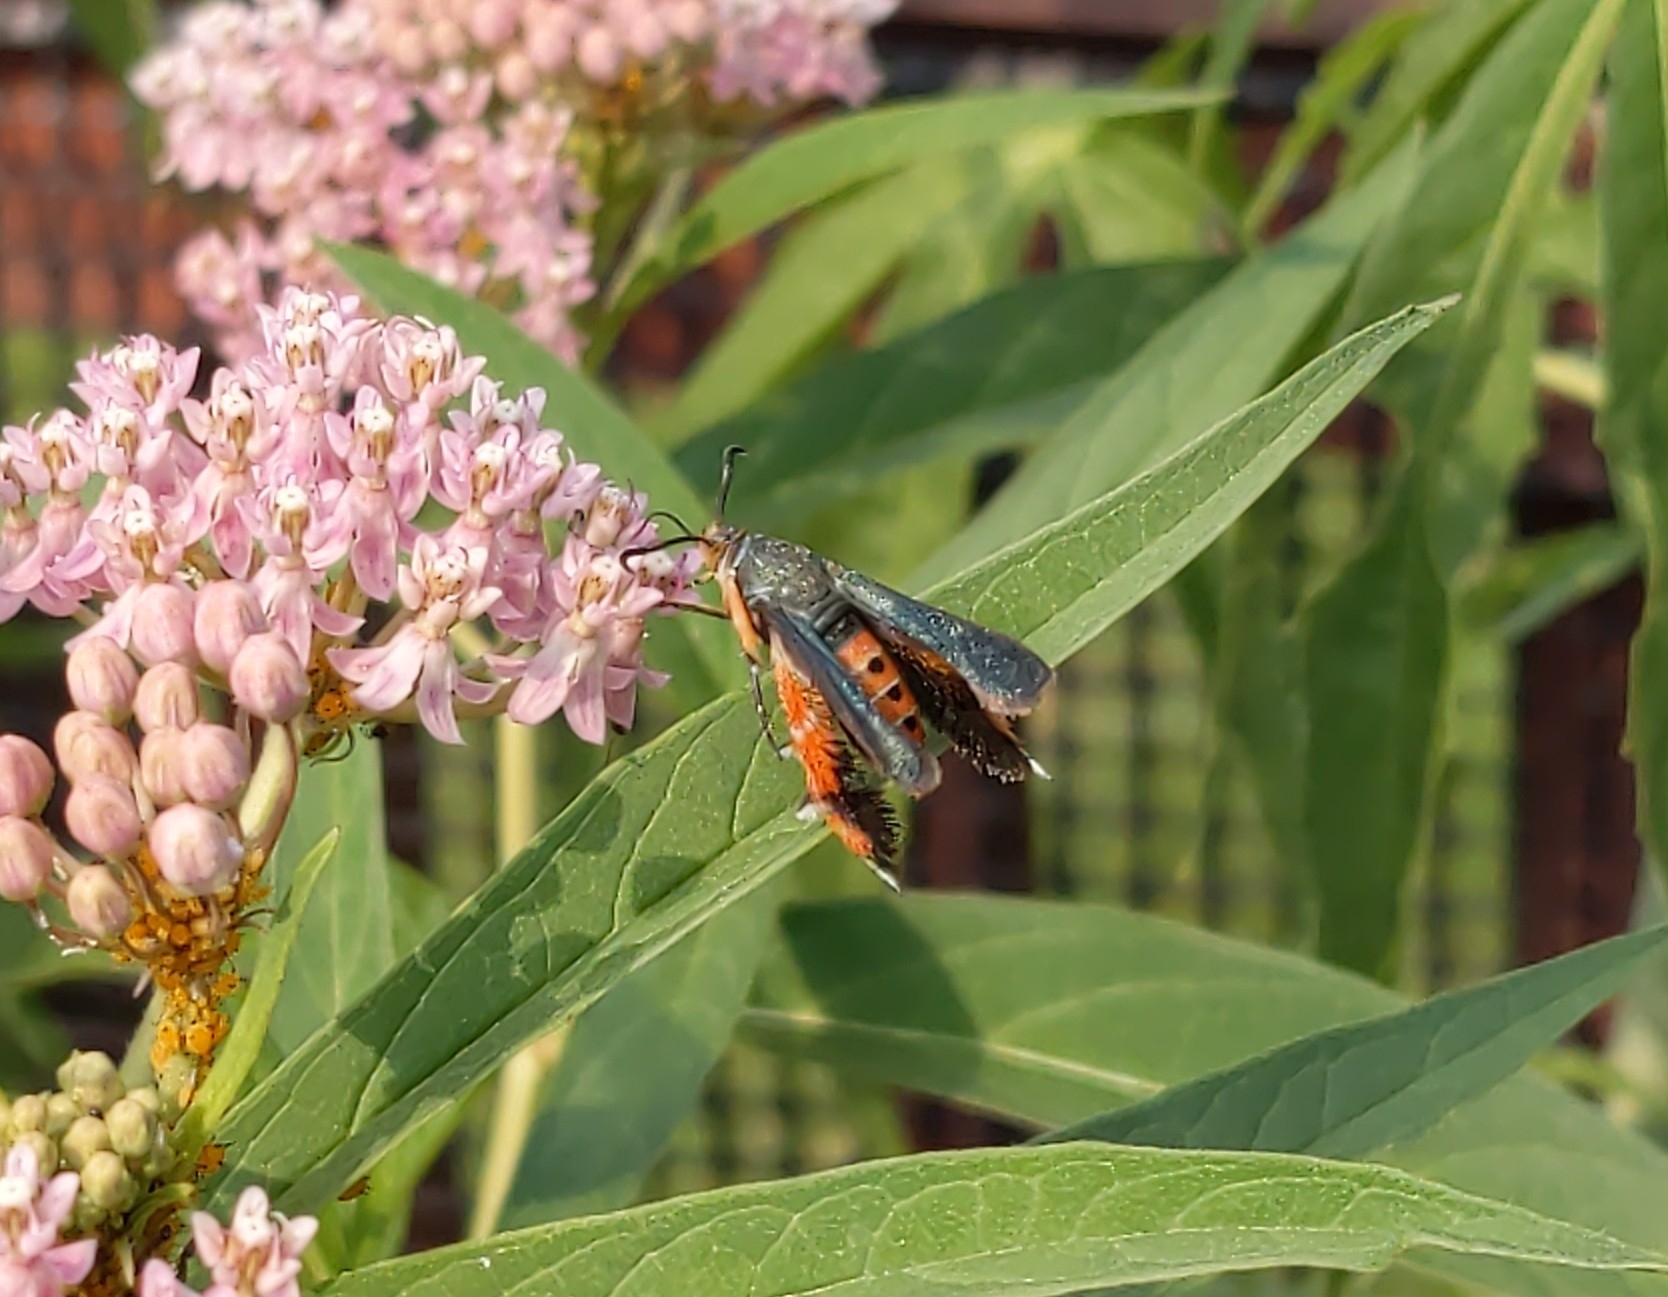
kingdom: Animalia
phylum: Arthropoda
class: Insecta
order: Lepidoptera
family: Sesiidae
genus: Eichlinia
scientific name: Eichlinia cucurbitae
